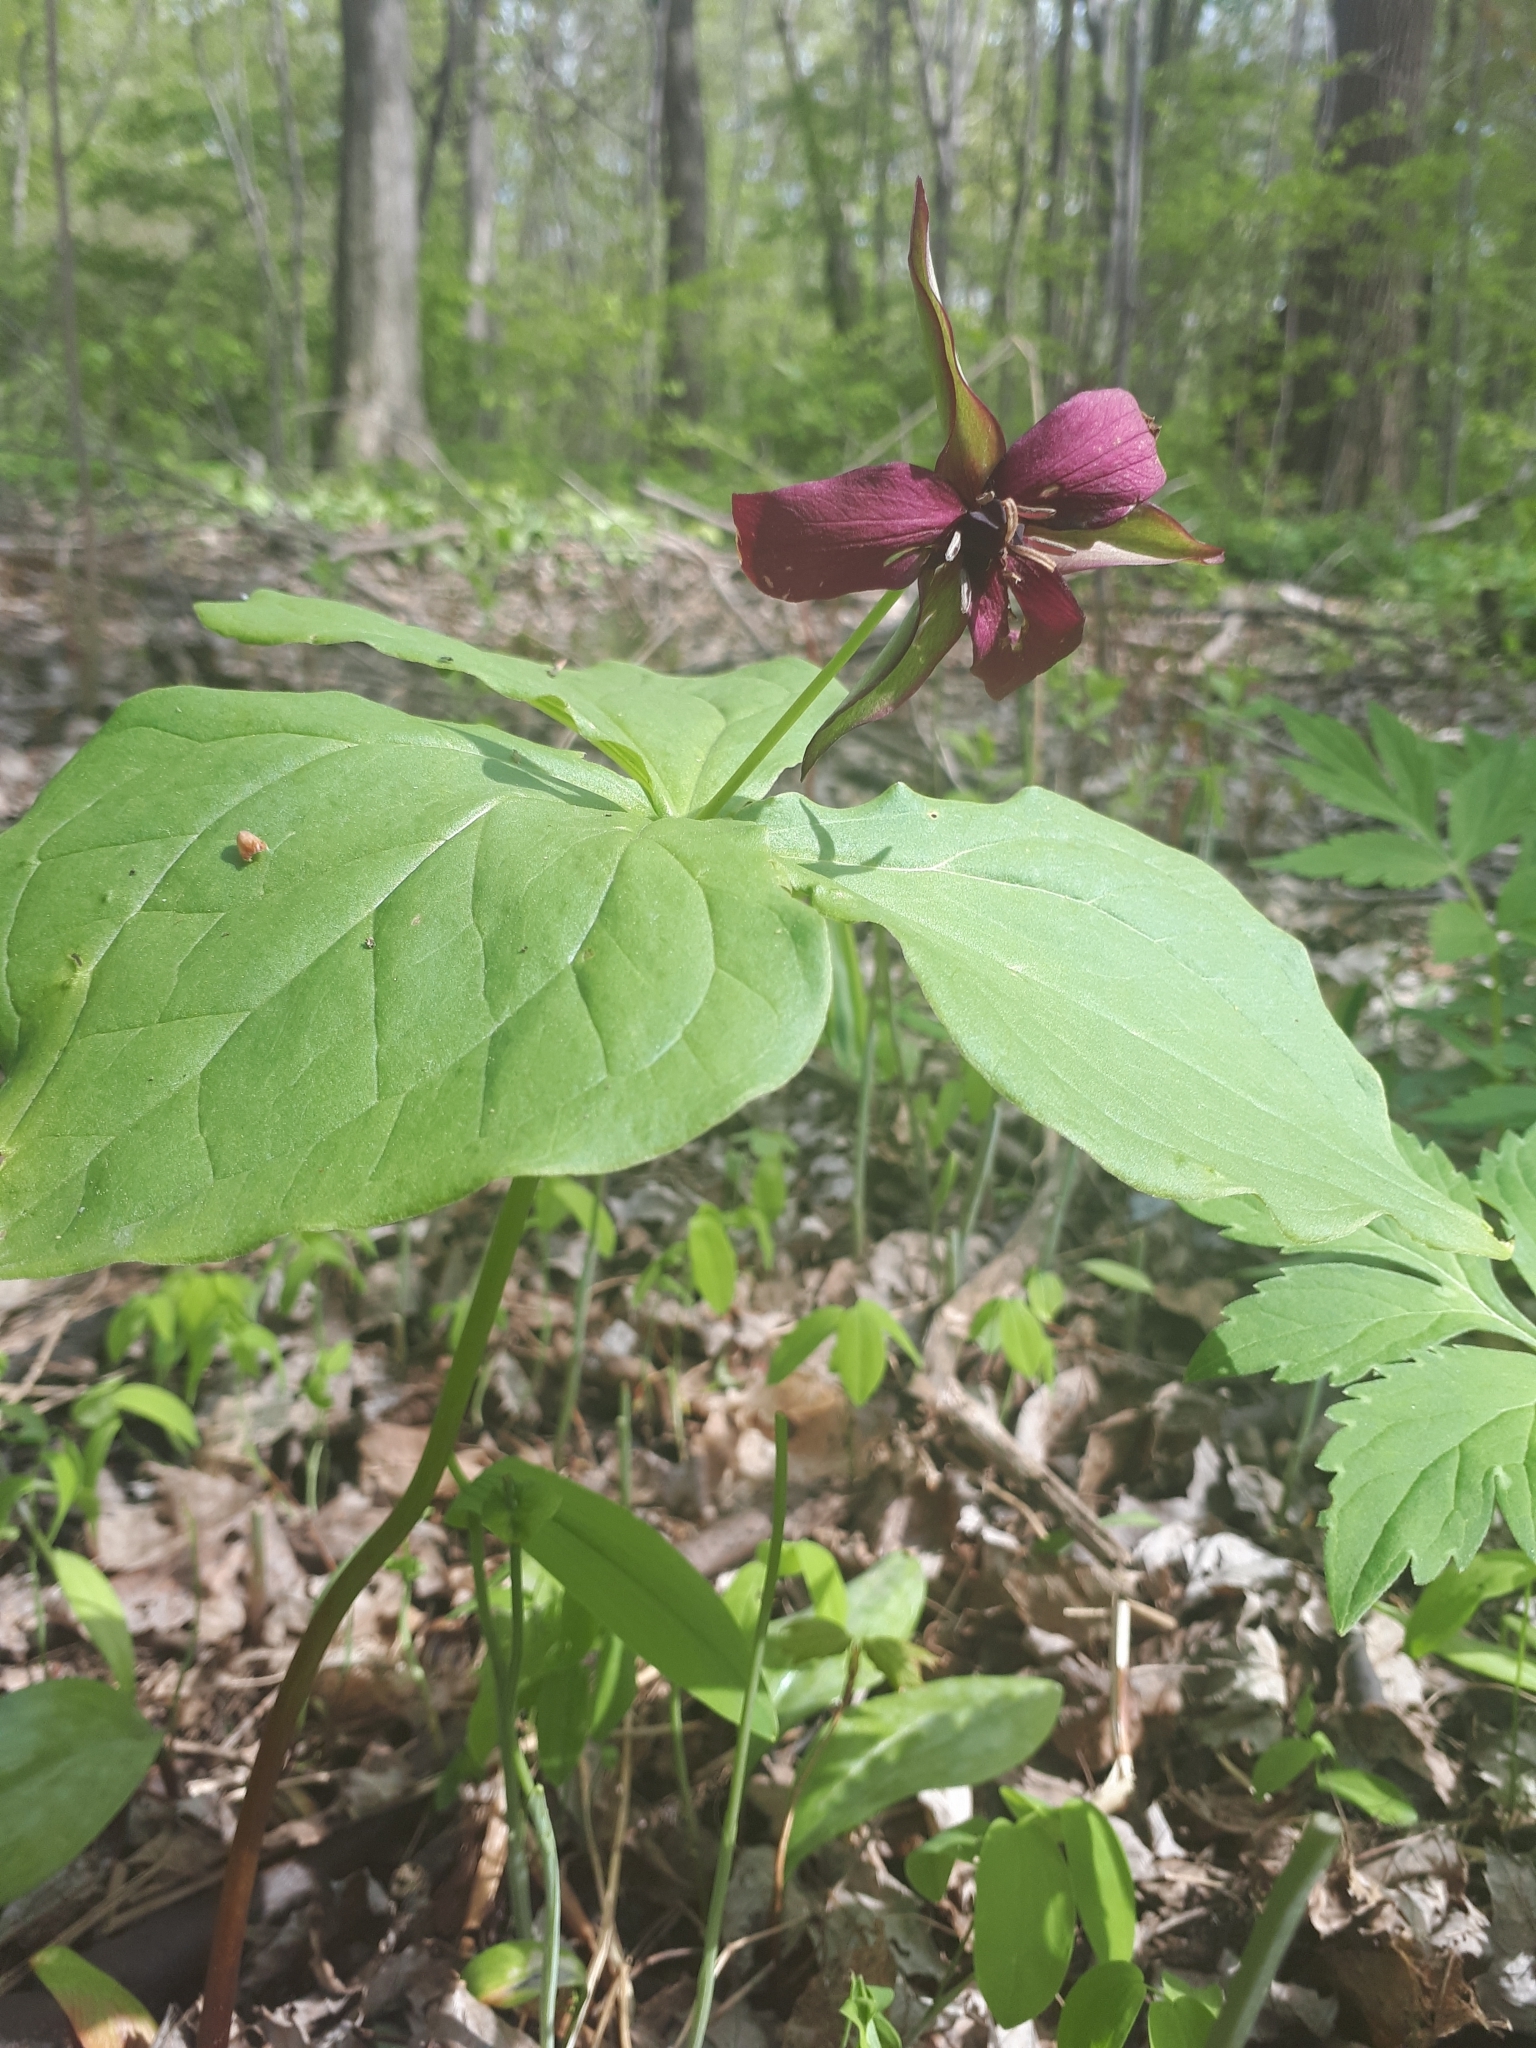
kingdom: Plantae
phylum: Tracheophyta
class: Liliopsida
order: Liliales
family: Melanthiaceae
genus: Trillium
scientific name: Trillium erectum
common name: Purple trillium
